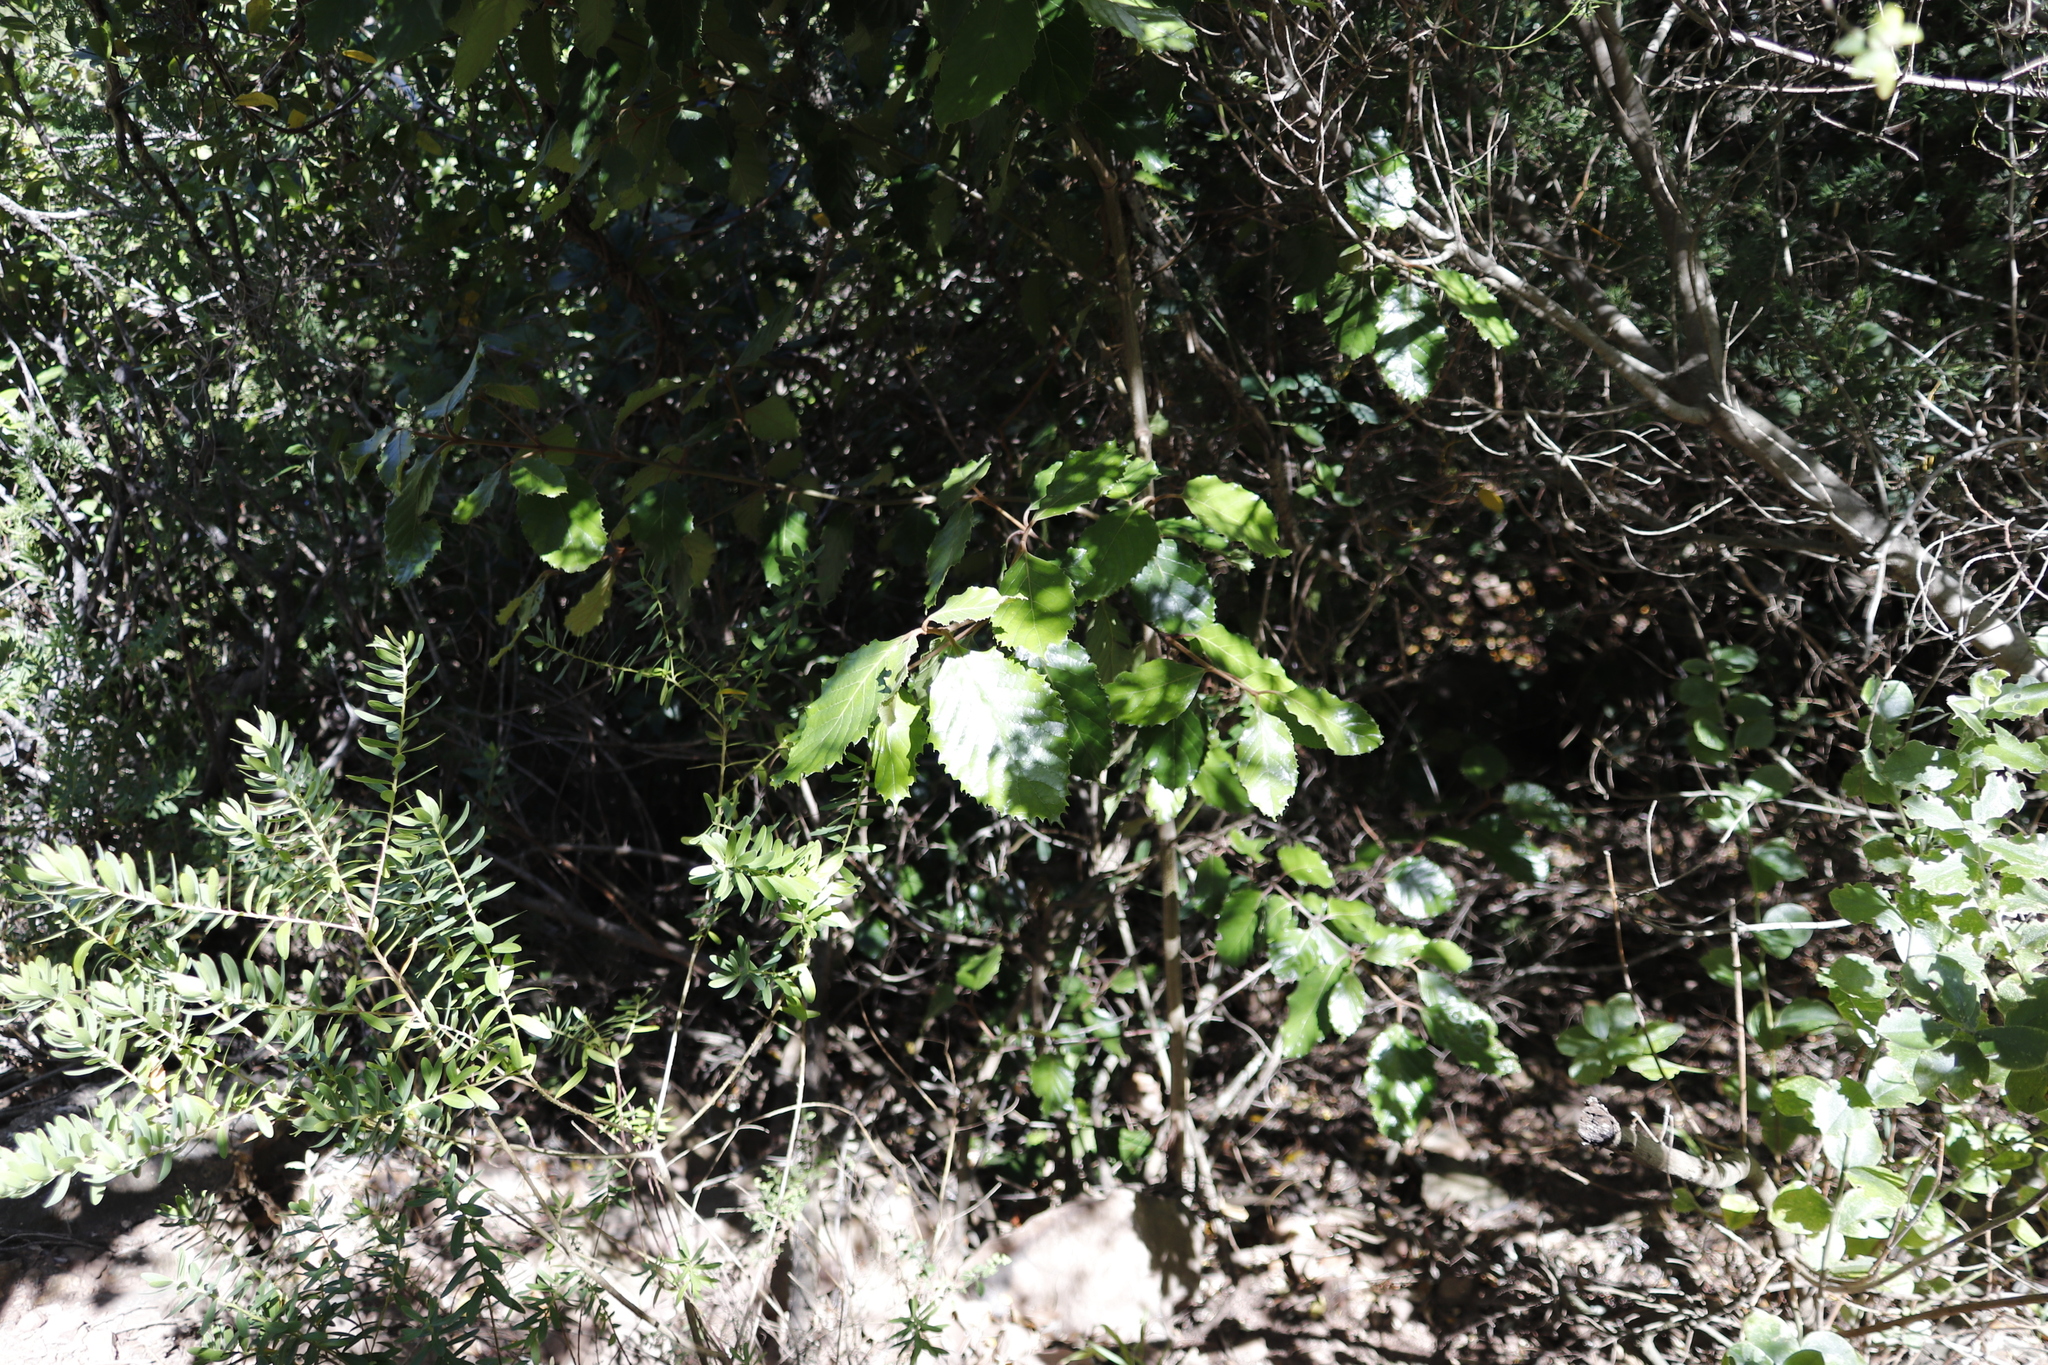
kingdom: Plantae
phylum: Tracheophyta
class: Magnoliopsida
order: Cornales
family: Curtisiaceae
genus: Curtisia
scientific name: Curtisia dentata
